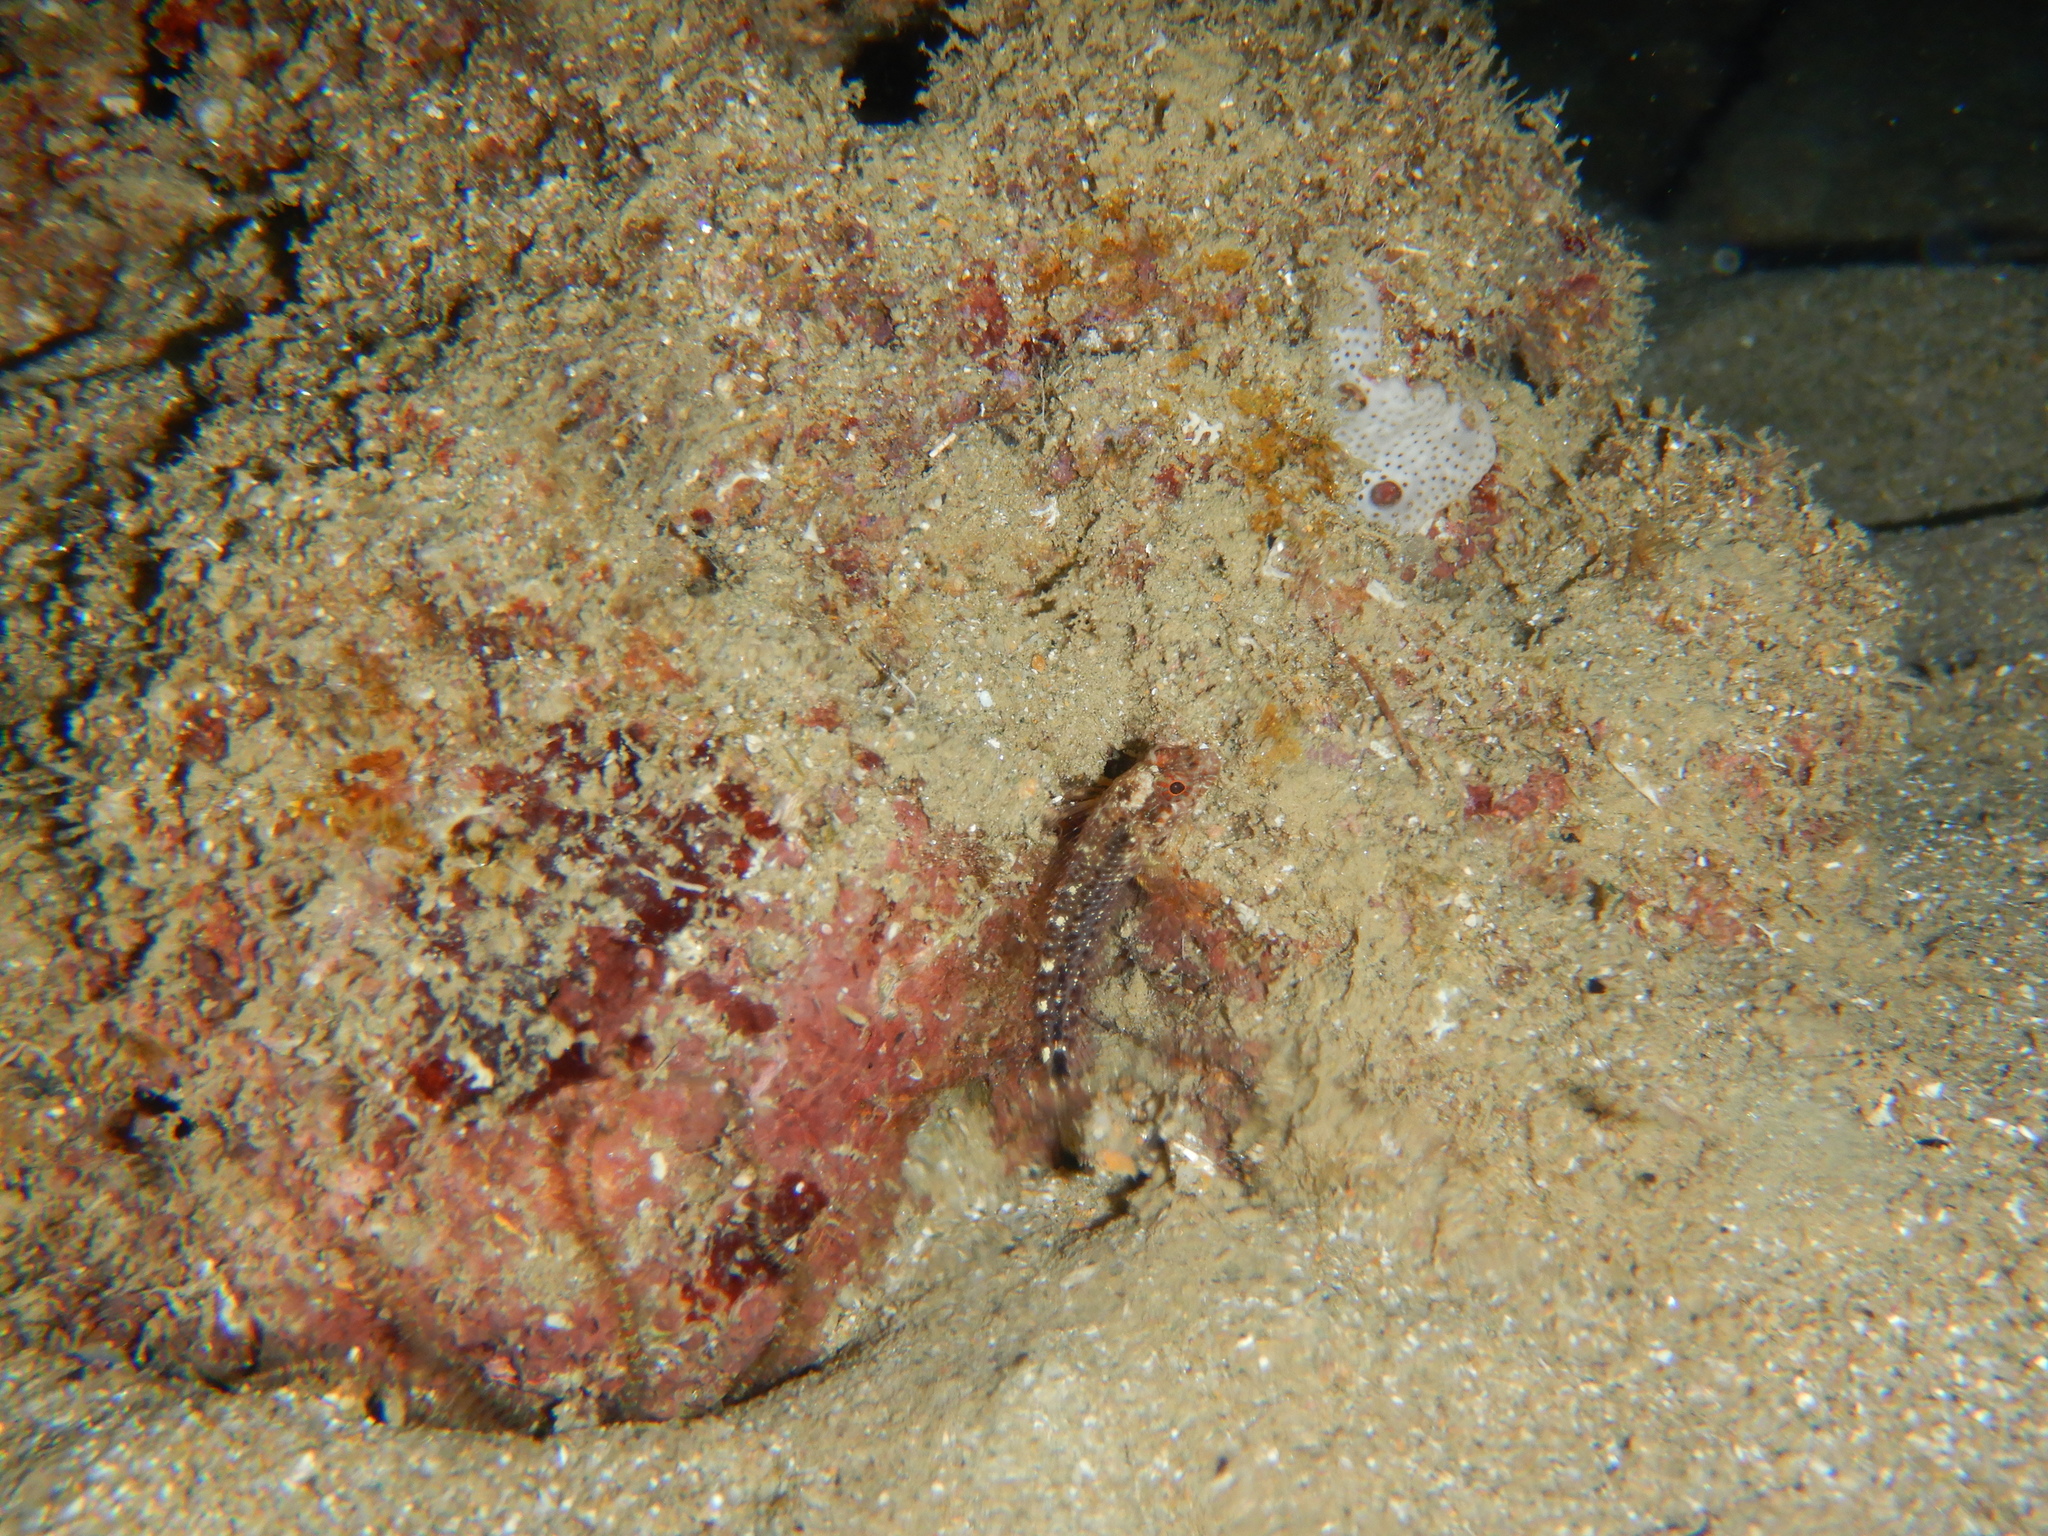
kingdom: Animalia
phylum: Chordata
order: Perciformes
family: Blenniidae
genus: Parablennius
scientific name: Parablennius zvonimiri
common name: Red blenny
